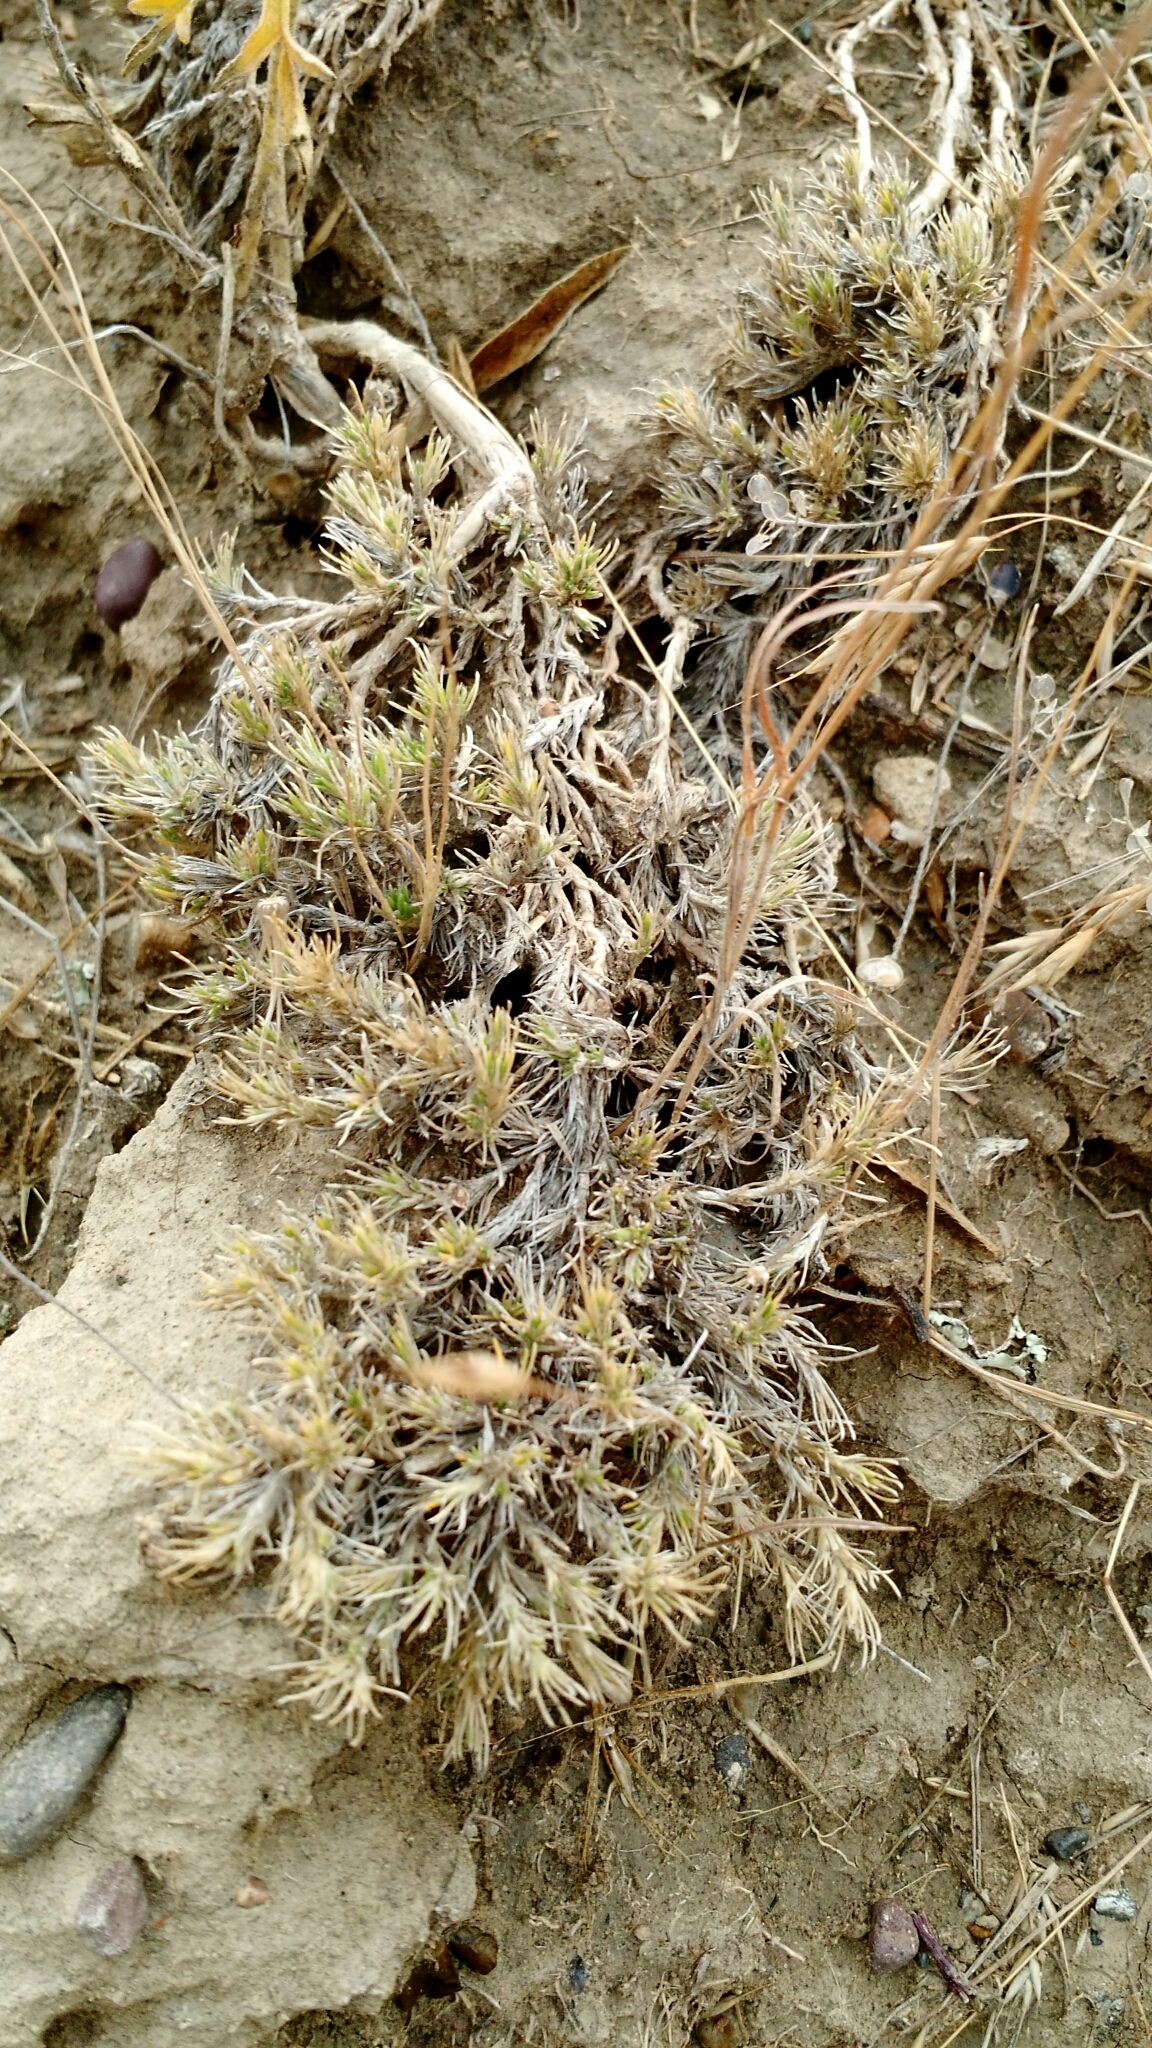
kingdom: Plantae
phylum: Tracheophyta
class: Magnoliopsida
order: Ericales
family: Polemoniaceae
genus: Phlox
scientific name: Phlox hoodii
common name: Moss phlox
